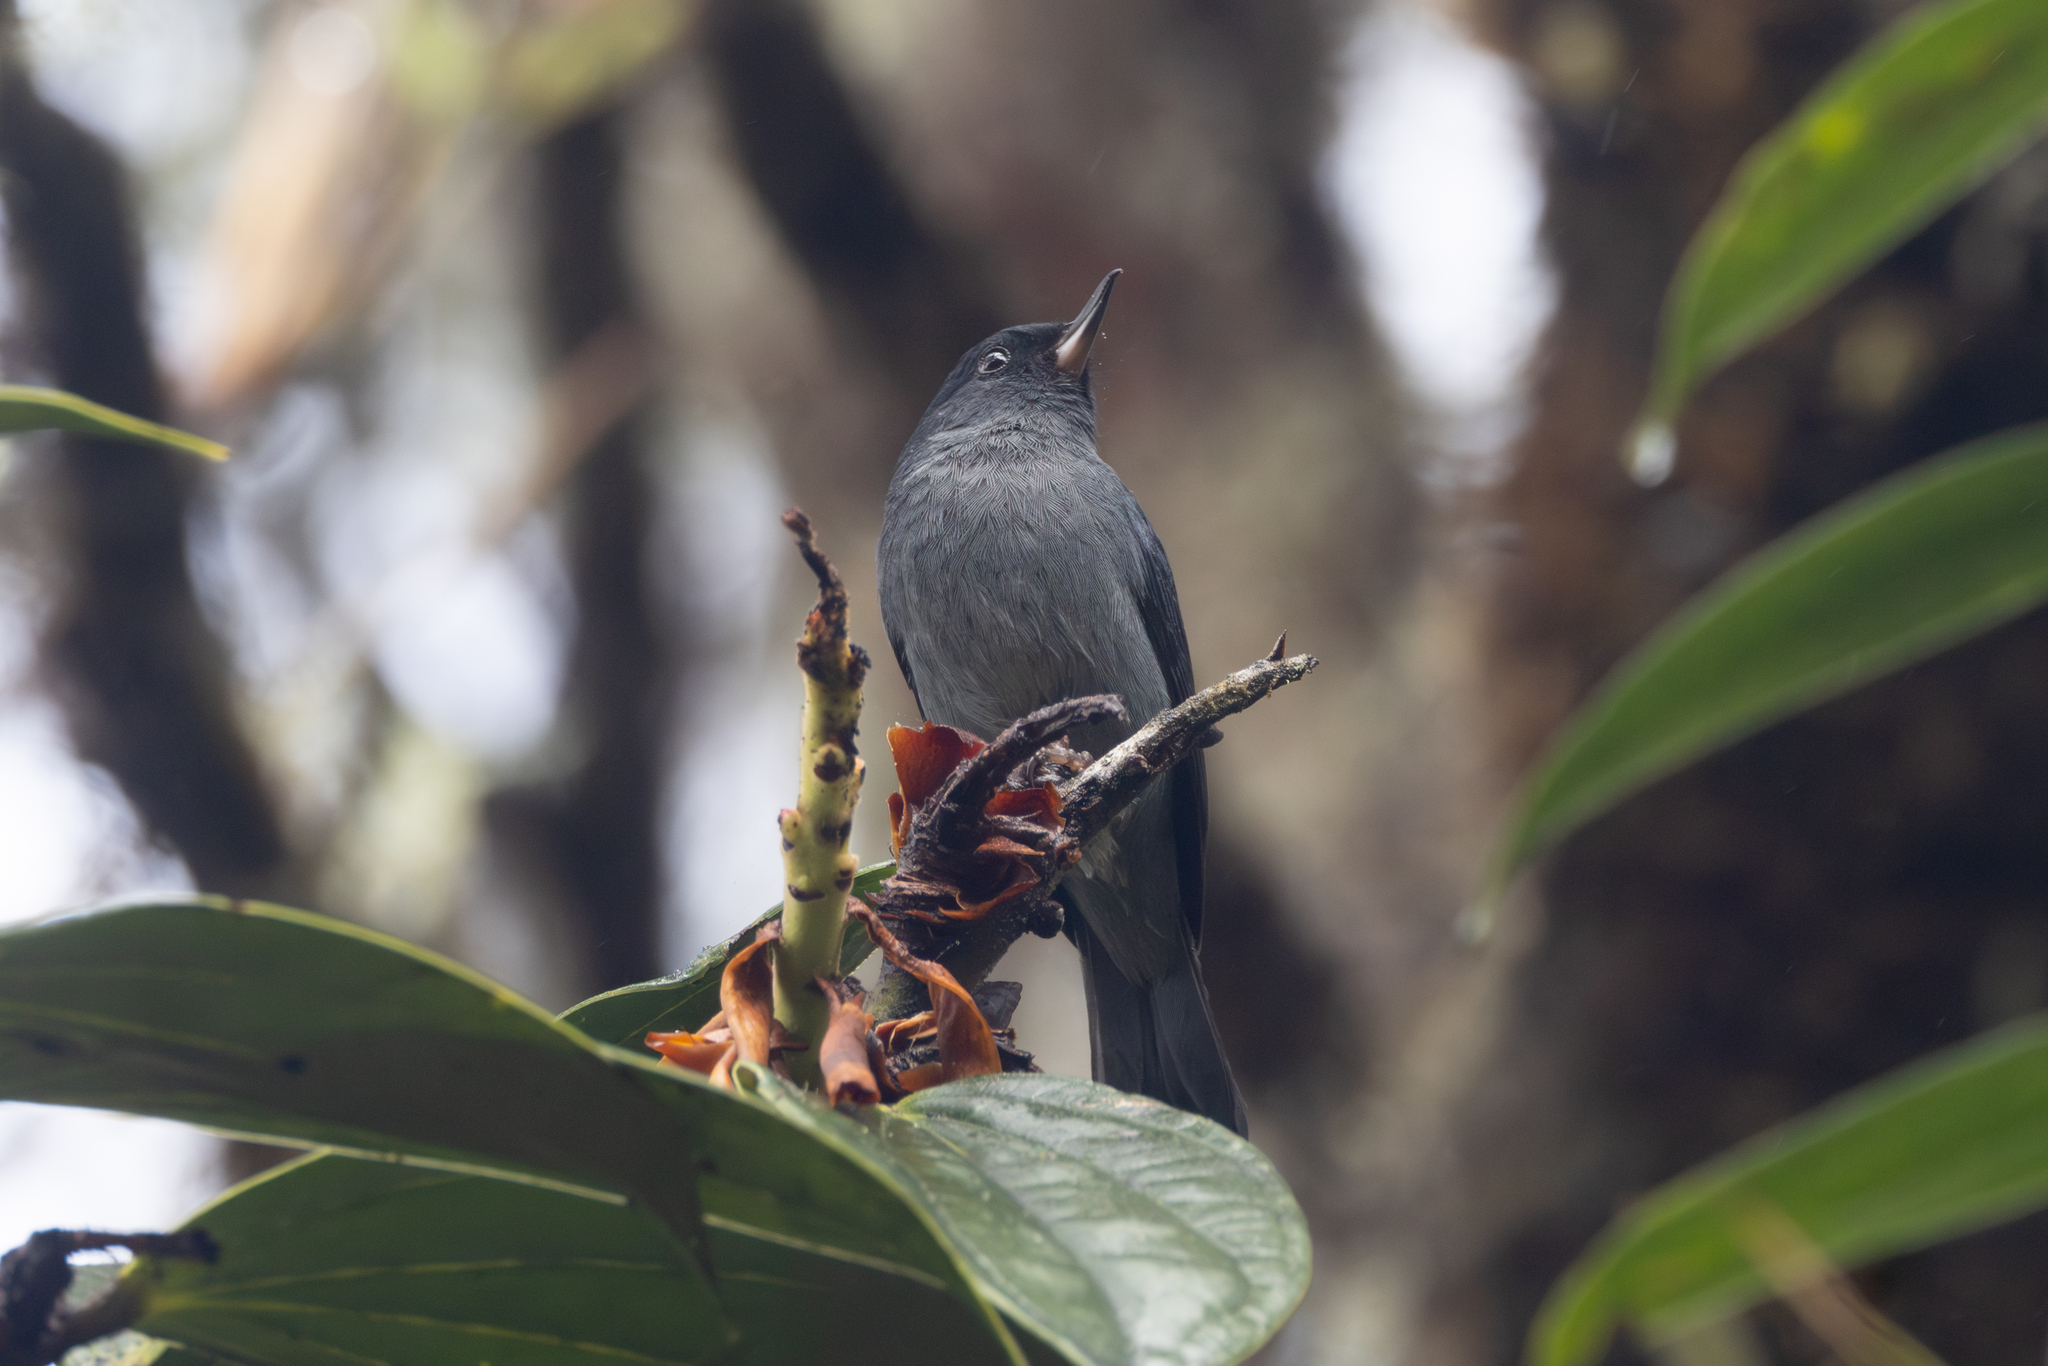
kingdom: Animalia
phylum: Chordata
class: Aves
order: Passeriformes
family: Thraupidae
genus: Diglossa
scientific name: Diglossa plumbea
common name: Slaty flowerpiercer
